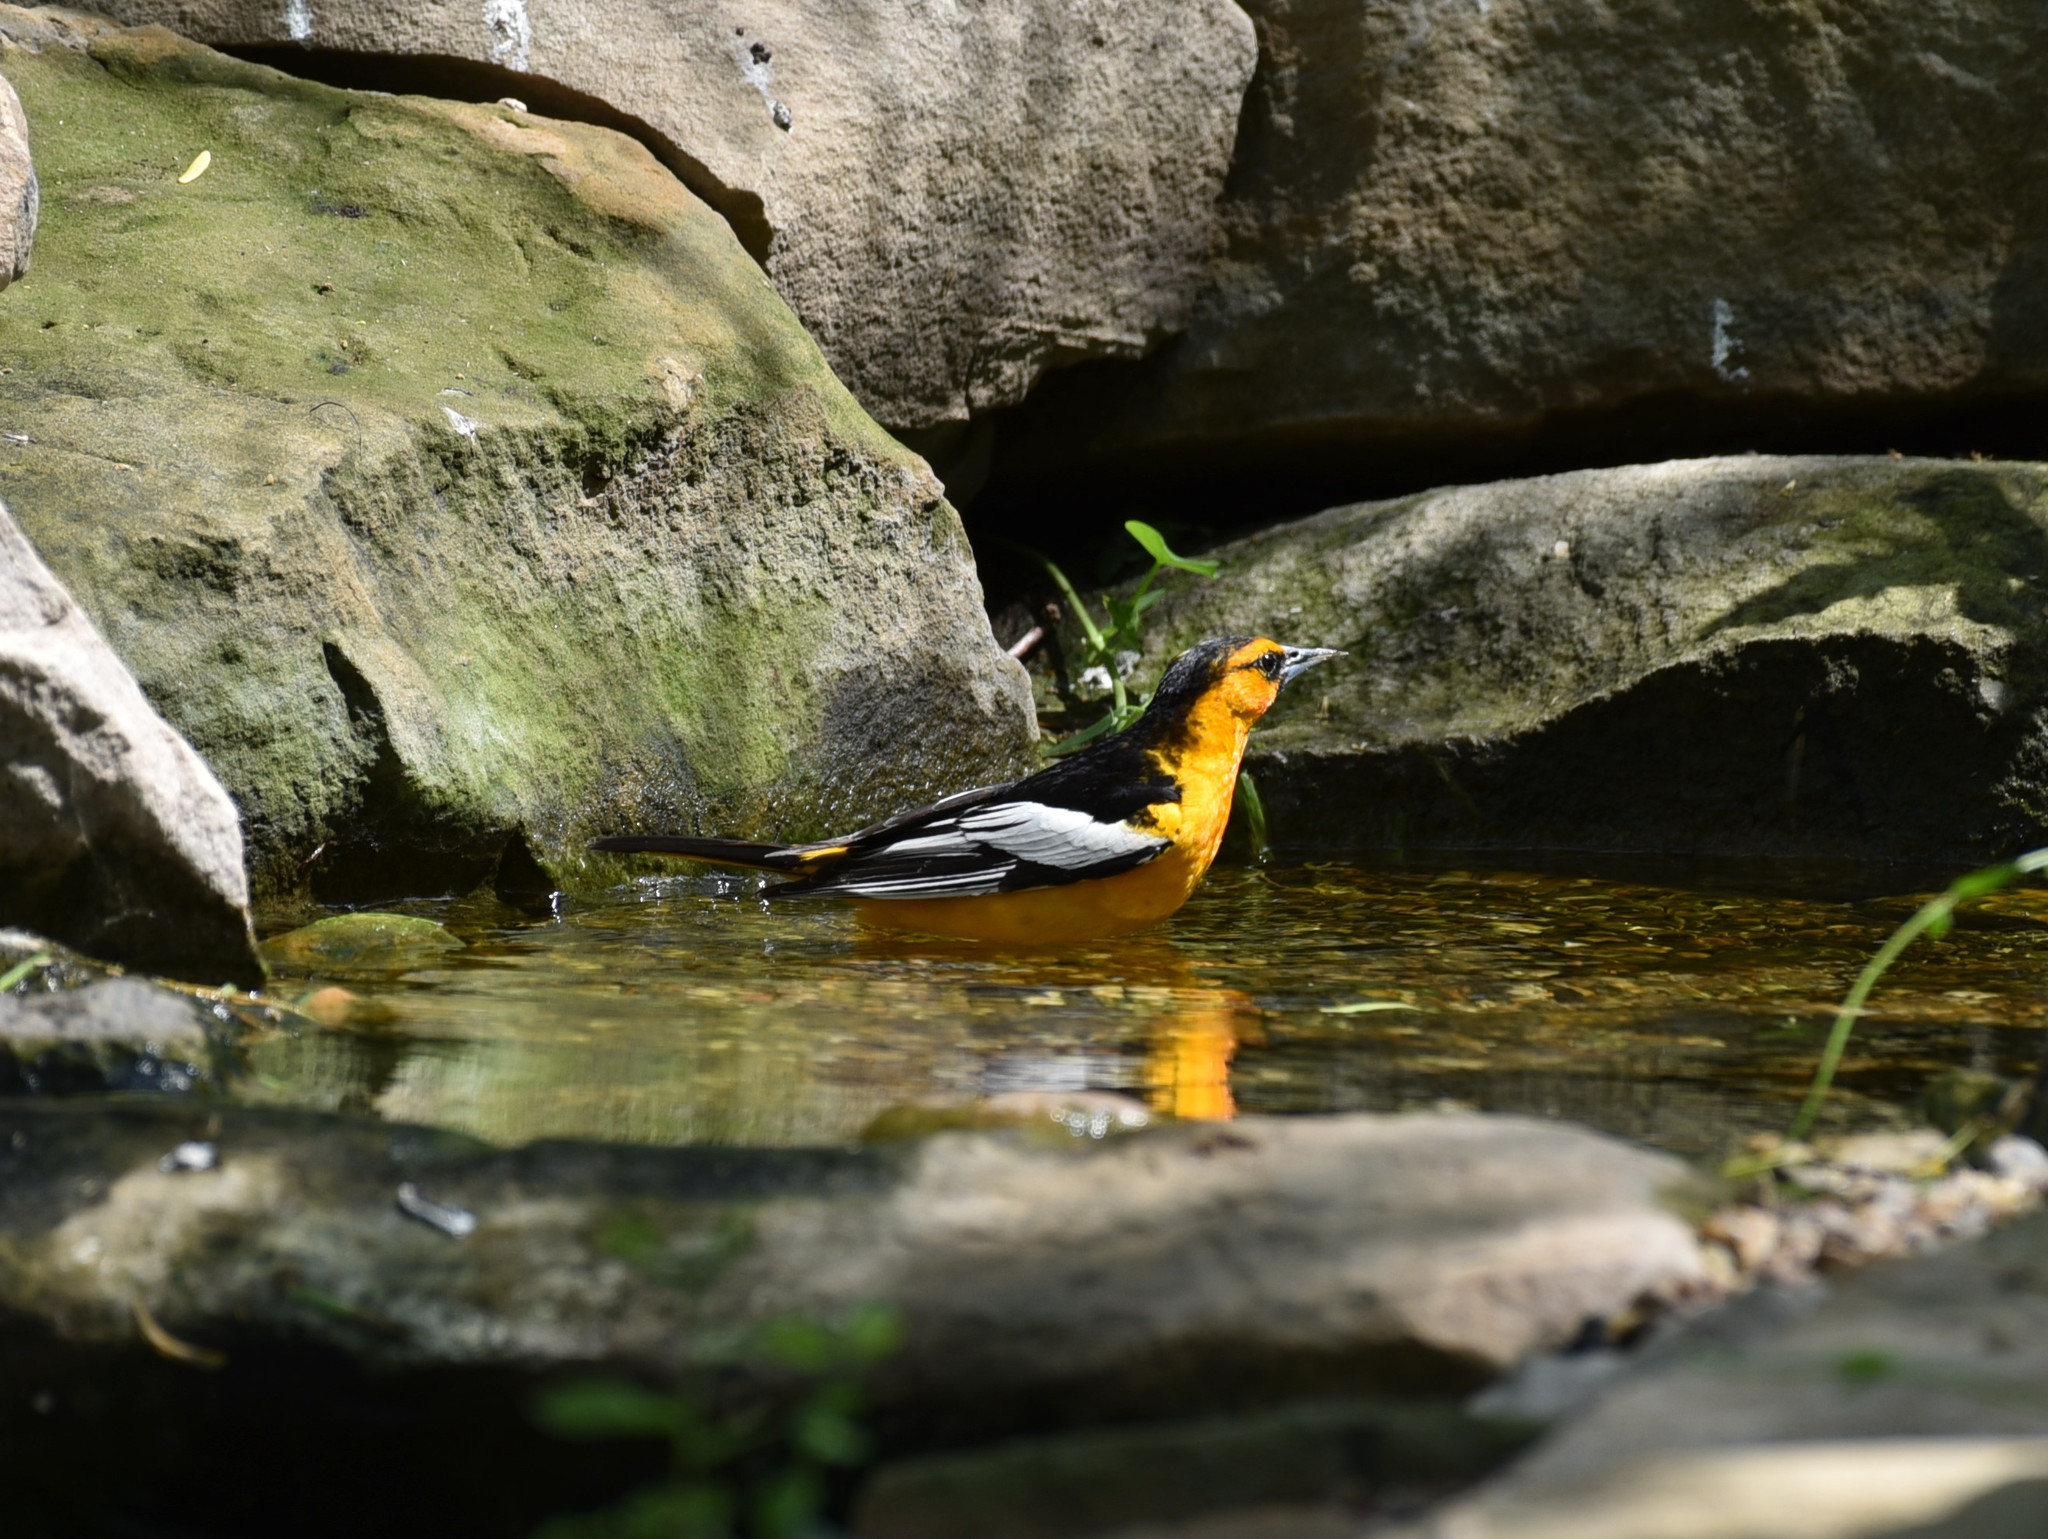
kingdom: Animalia
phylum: Chordata
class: Aves
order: Passeriformes
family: Icteridae
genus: Icterus
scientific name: Icterus bullockii
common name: Bullock's oriole
